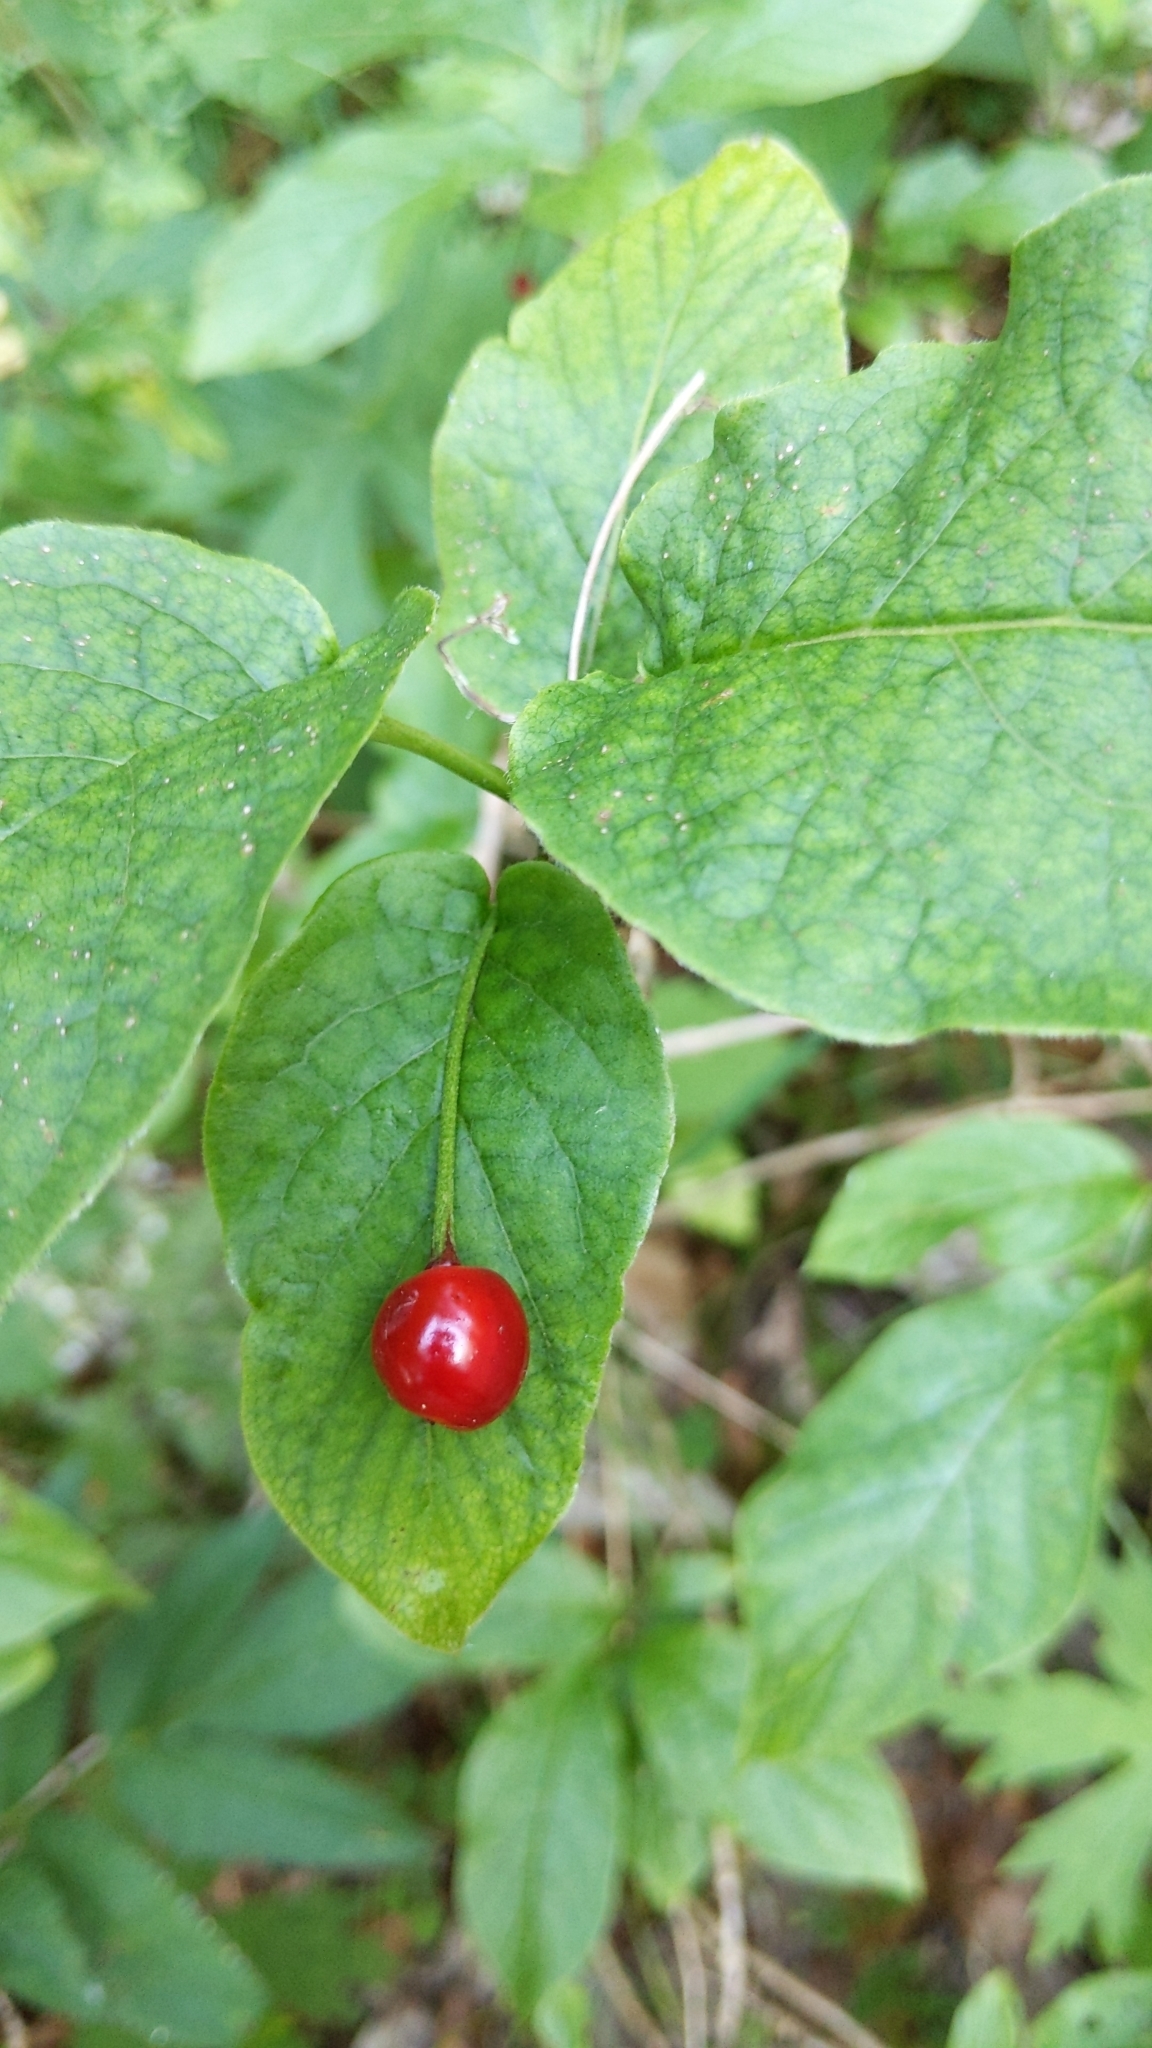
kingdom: Plantae
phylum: Tracheophyta
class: Magnoliopsida
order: Dipsacales
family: Caprifoliaceae
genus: Lonicera
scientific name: Lonicera alpigena
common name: Alpine honeysuckle
